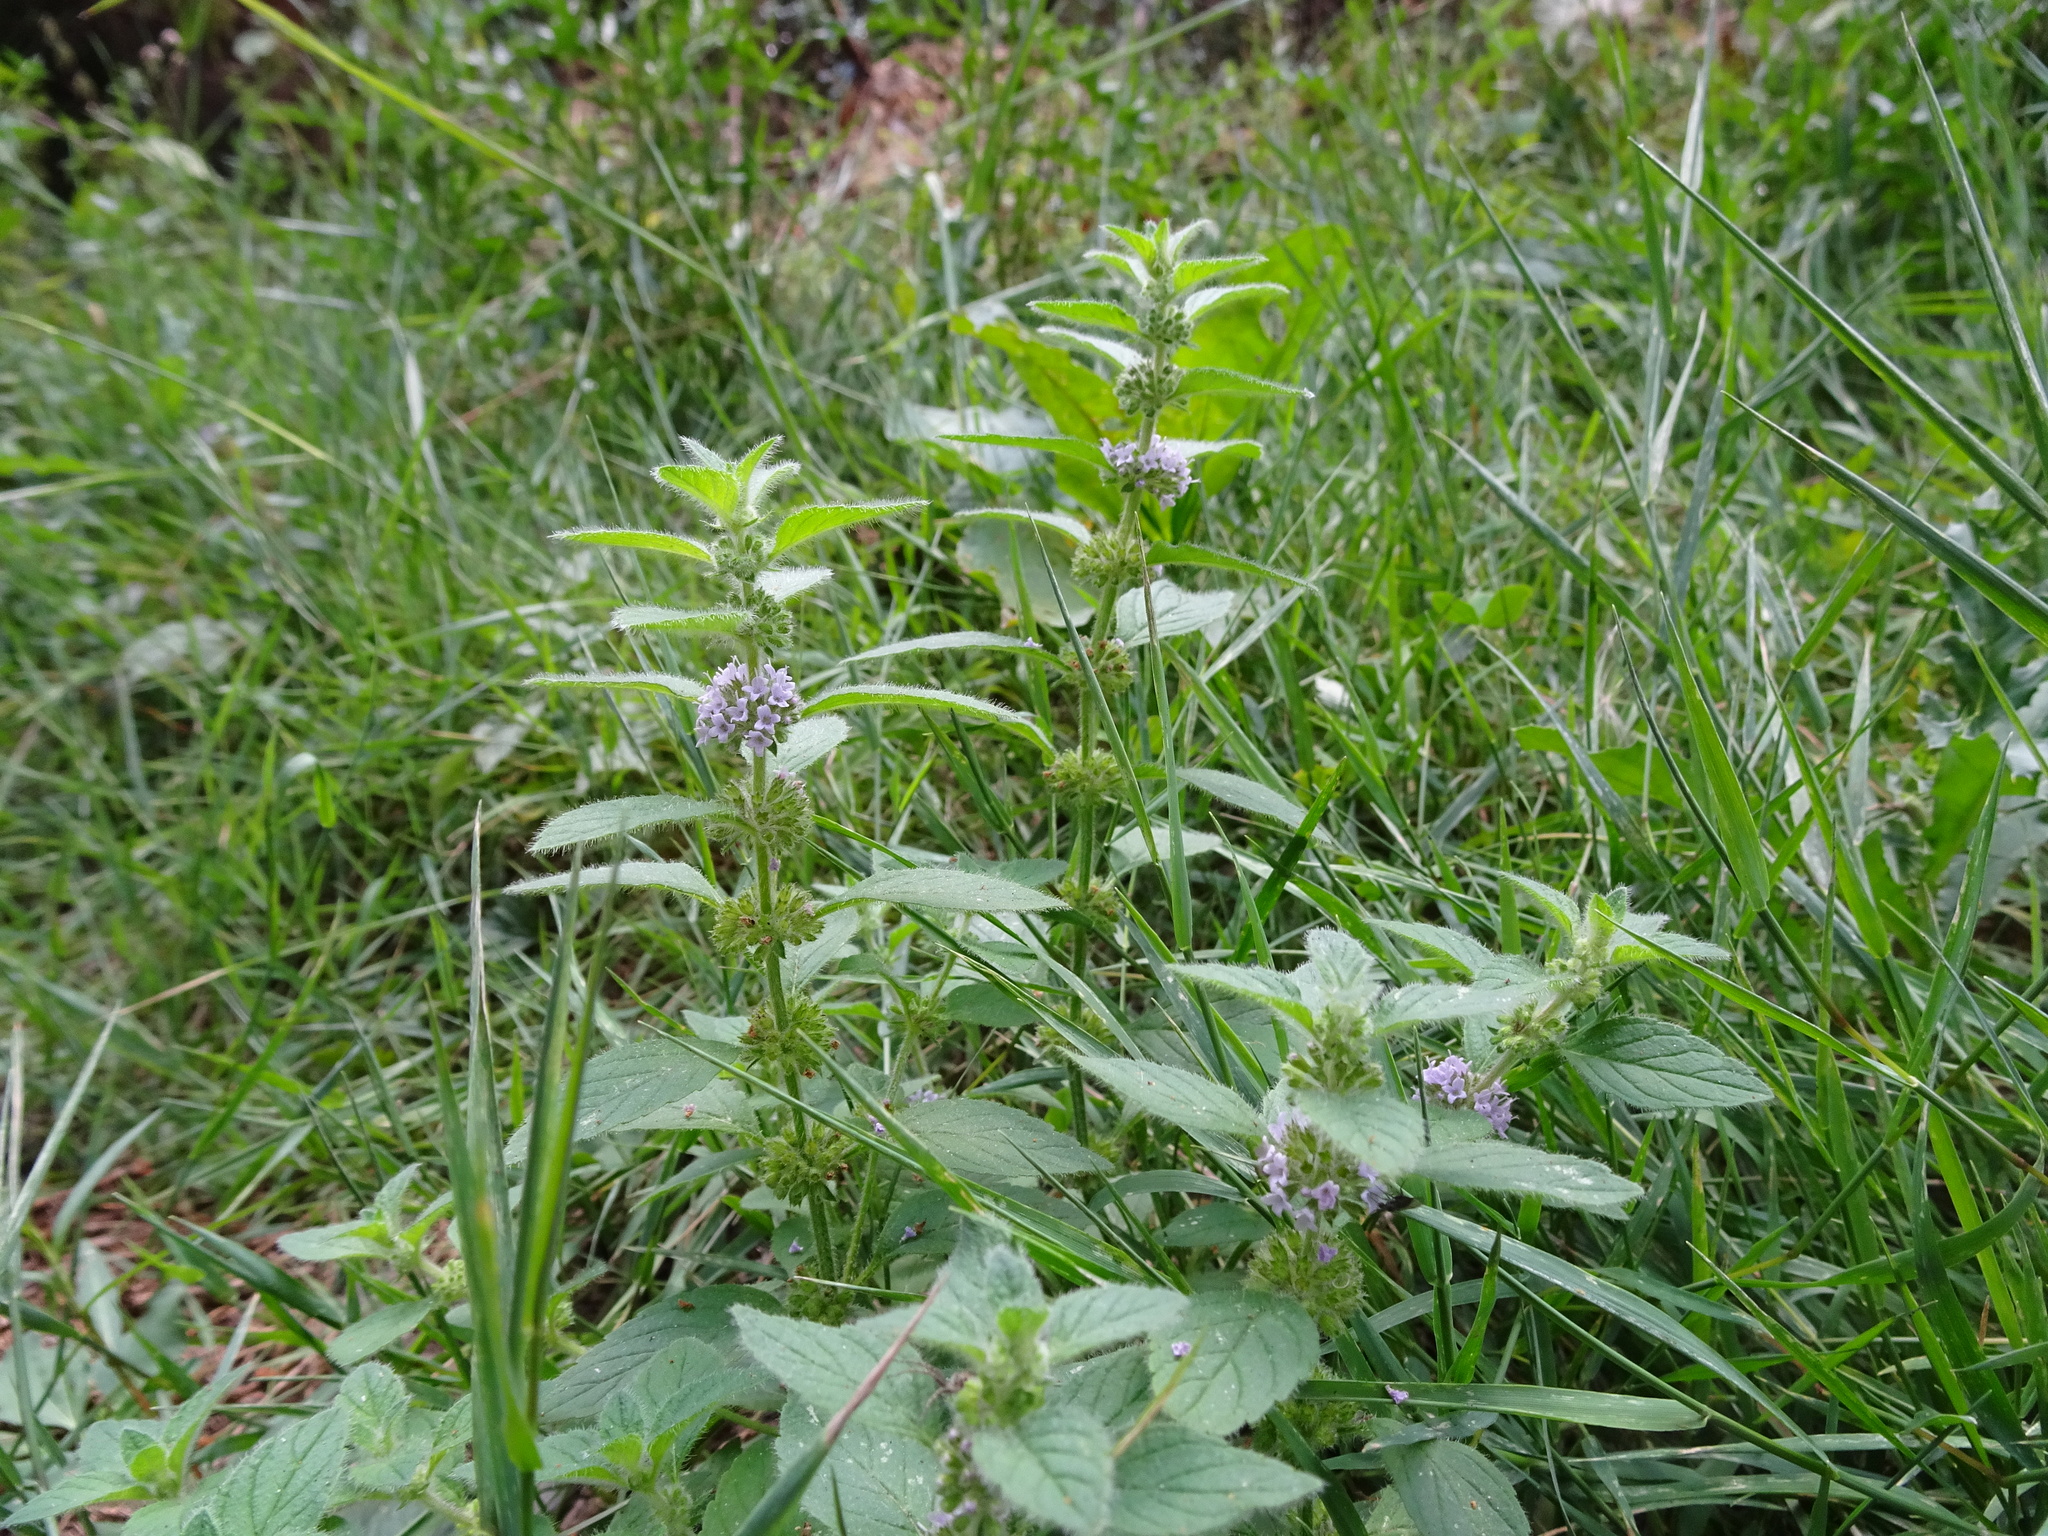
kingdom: Plantae
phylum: Tracheophyta
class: Magnoliopsida
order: Lamiales
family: Lamiaceae
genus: Mentha
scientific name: Mentha arvensis
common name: Corn mint
